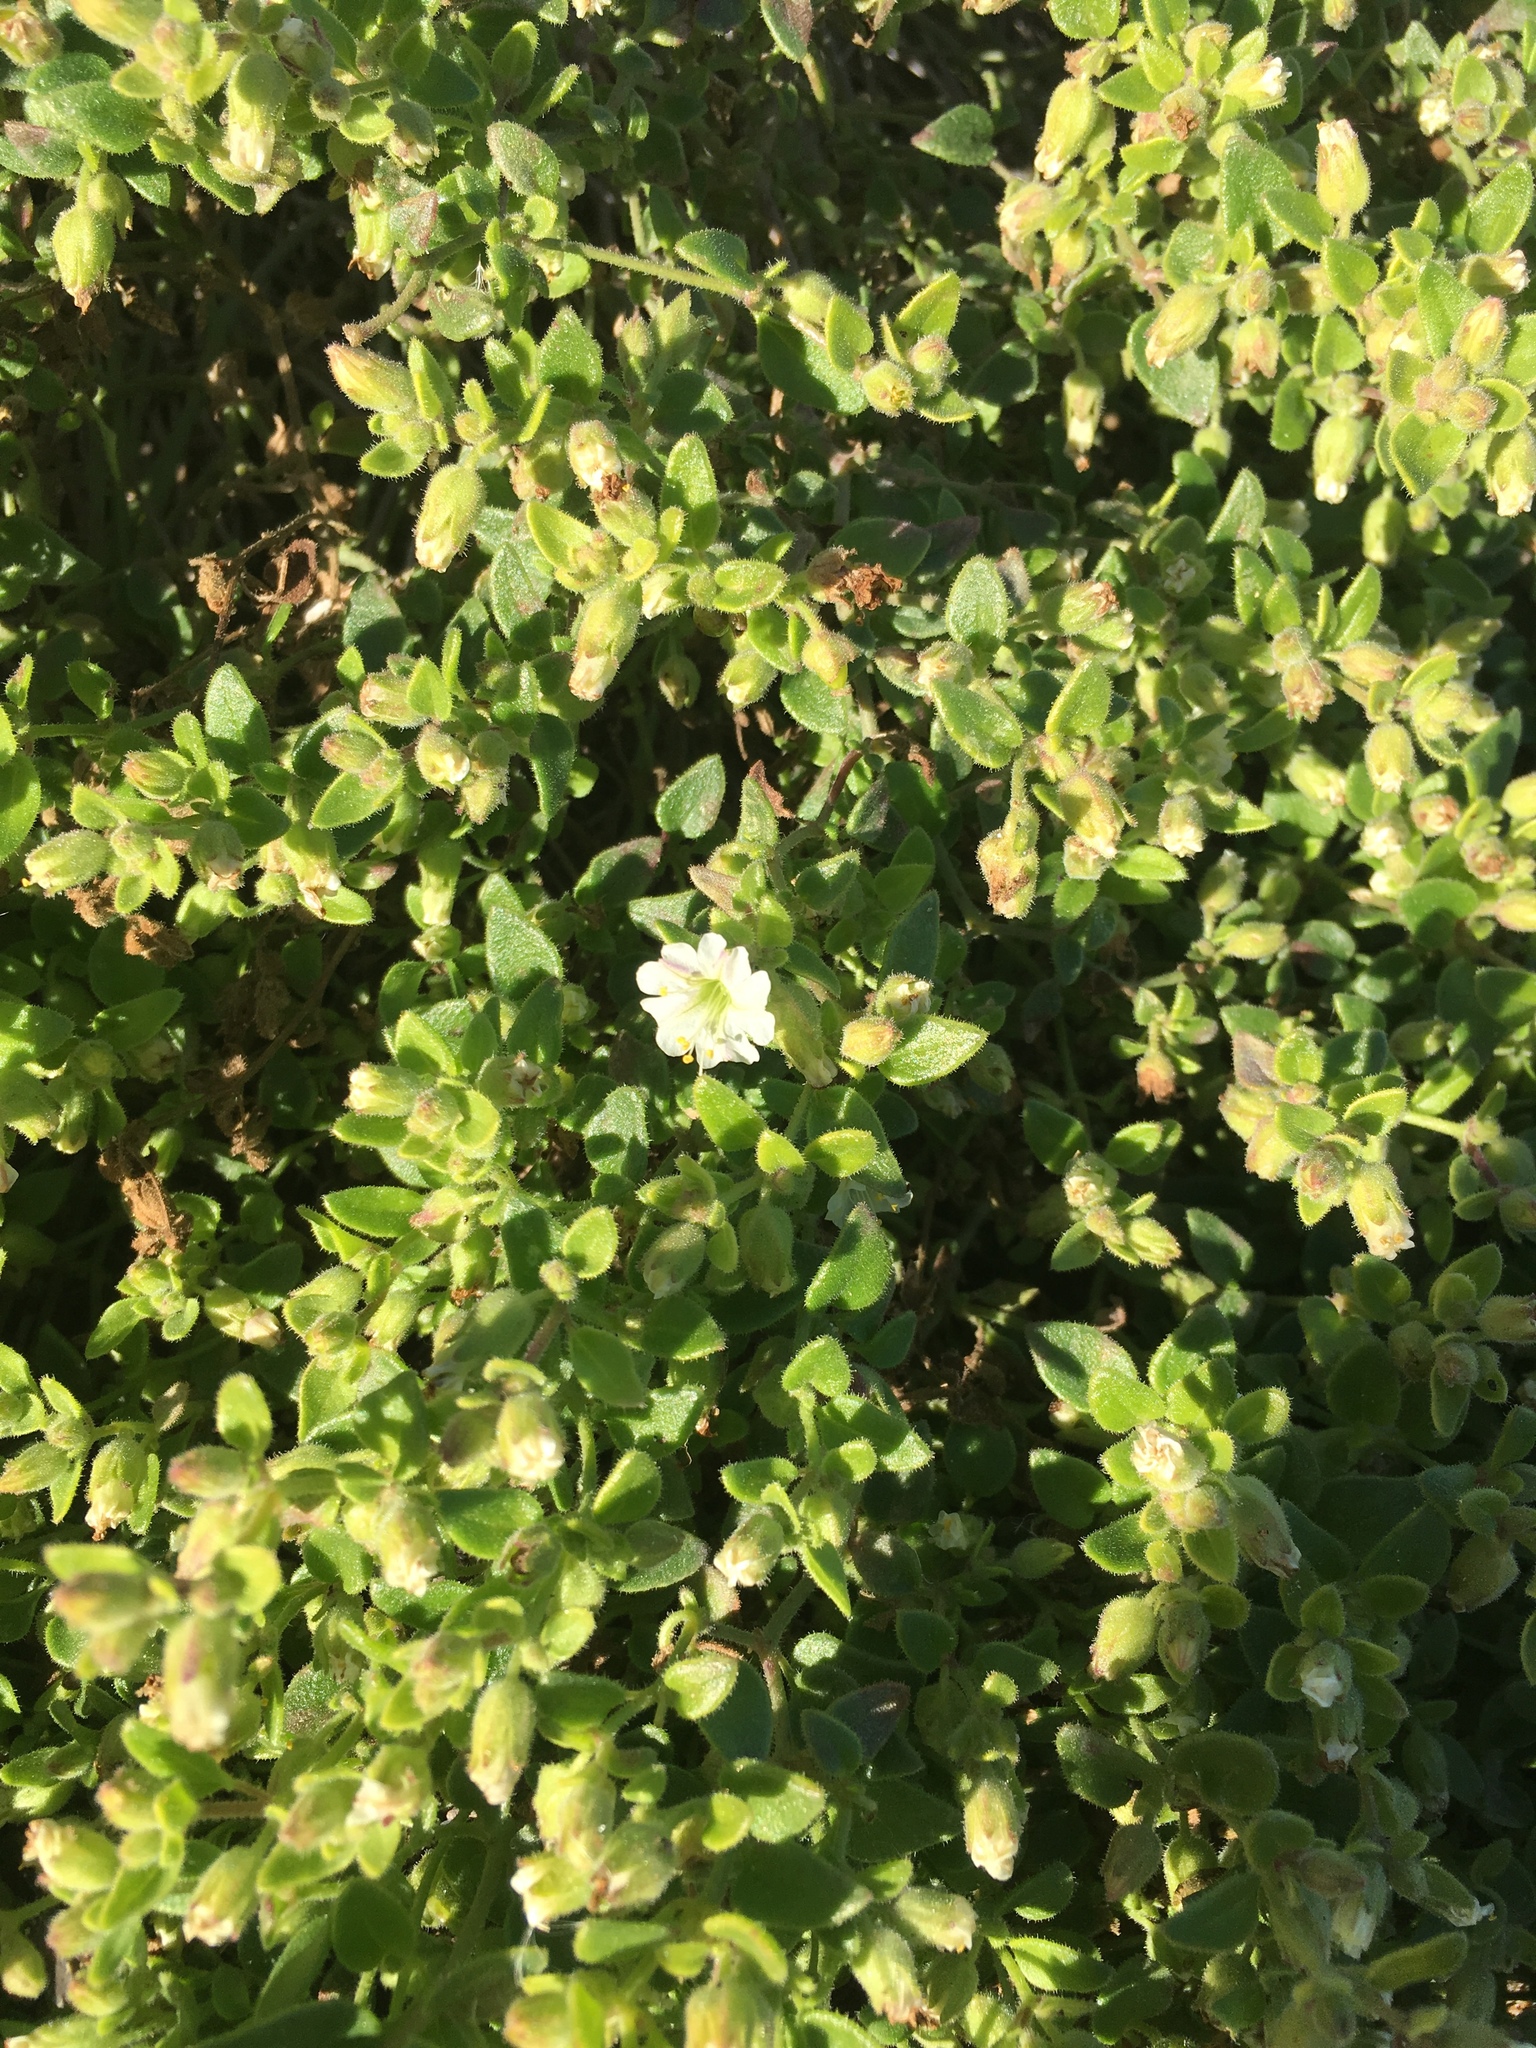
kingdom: Plantae
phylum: Tracheophyta
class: Magnoliopsida
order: Caryophyllales
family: Nyctaginaceae
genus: Mirabilis
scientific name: Mirabilis laevis
